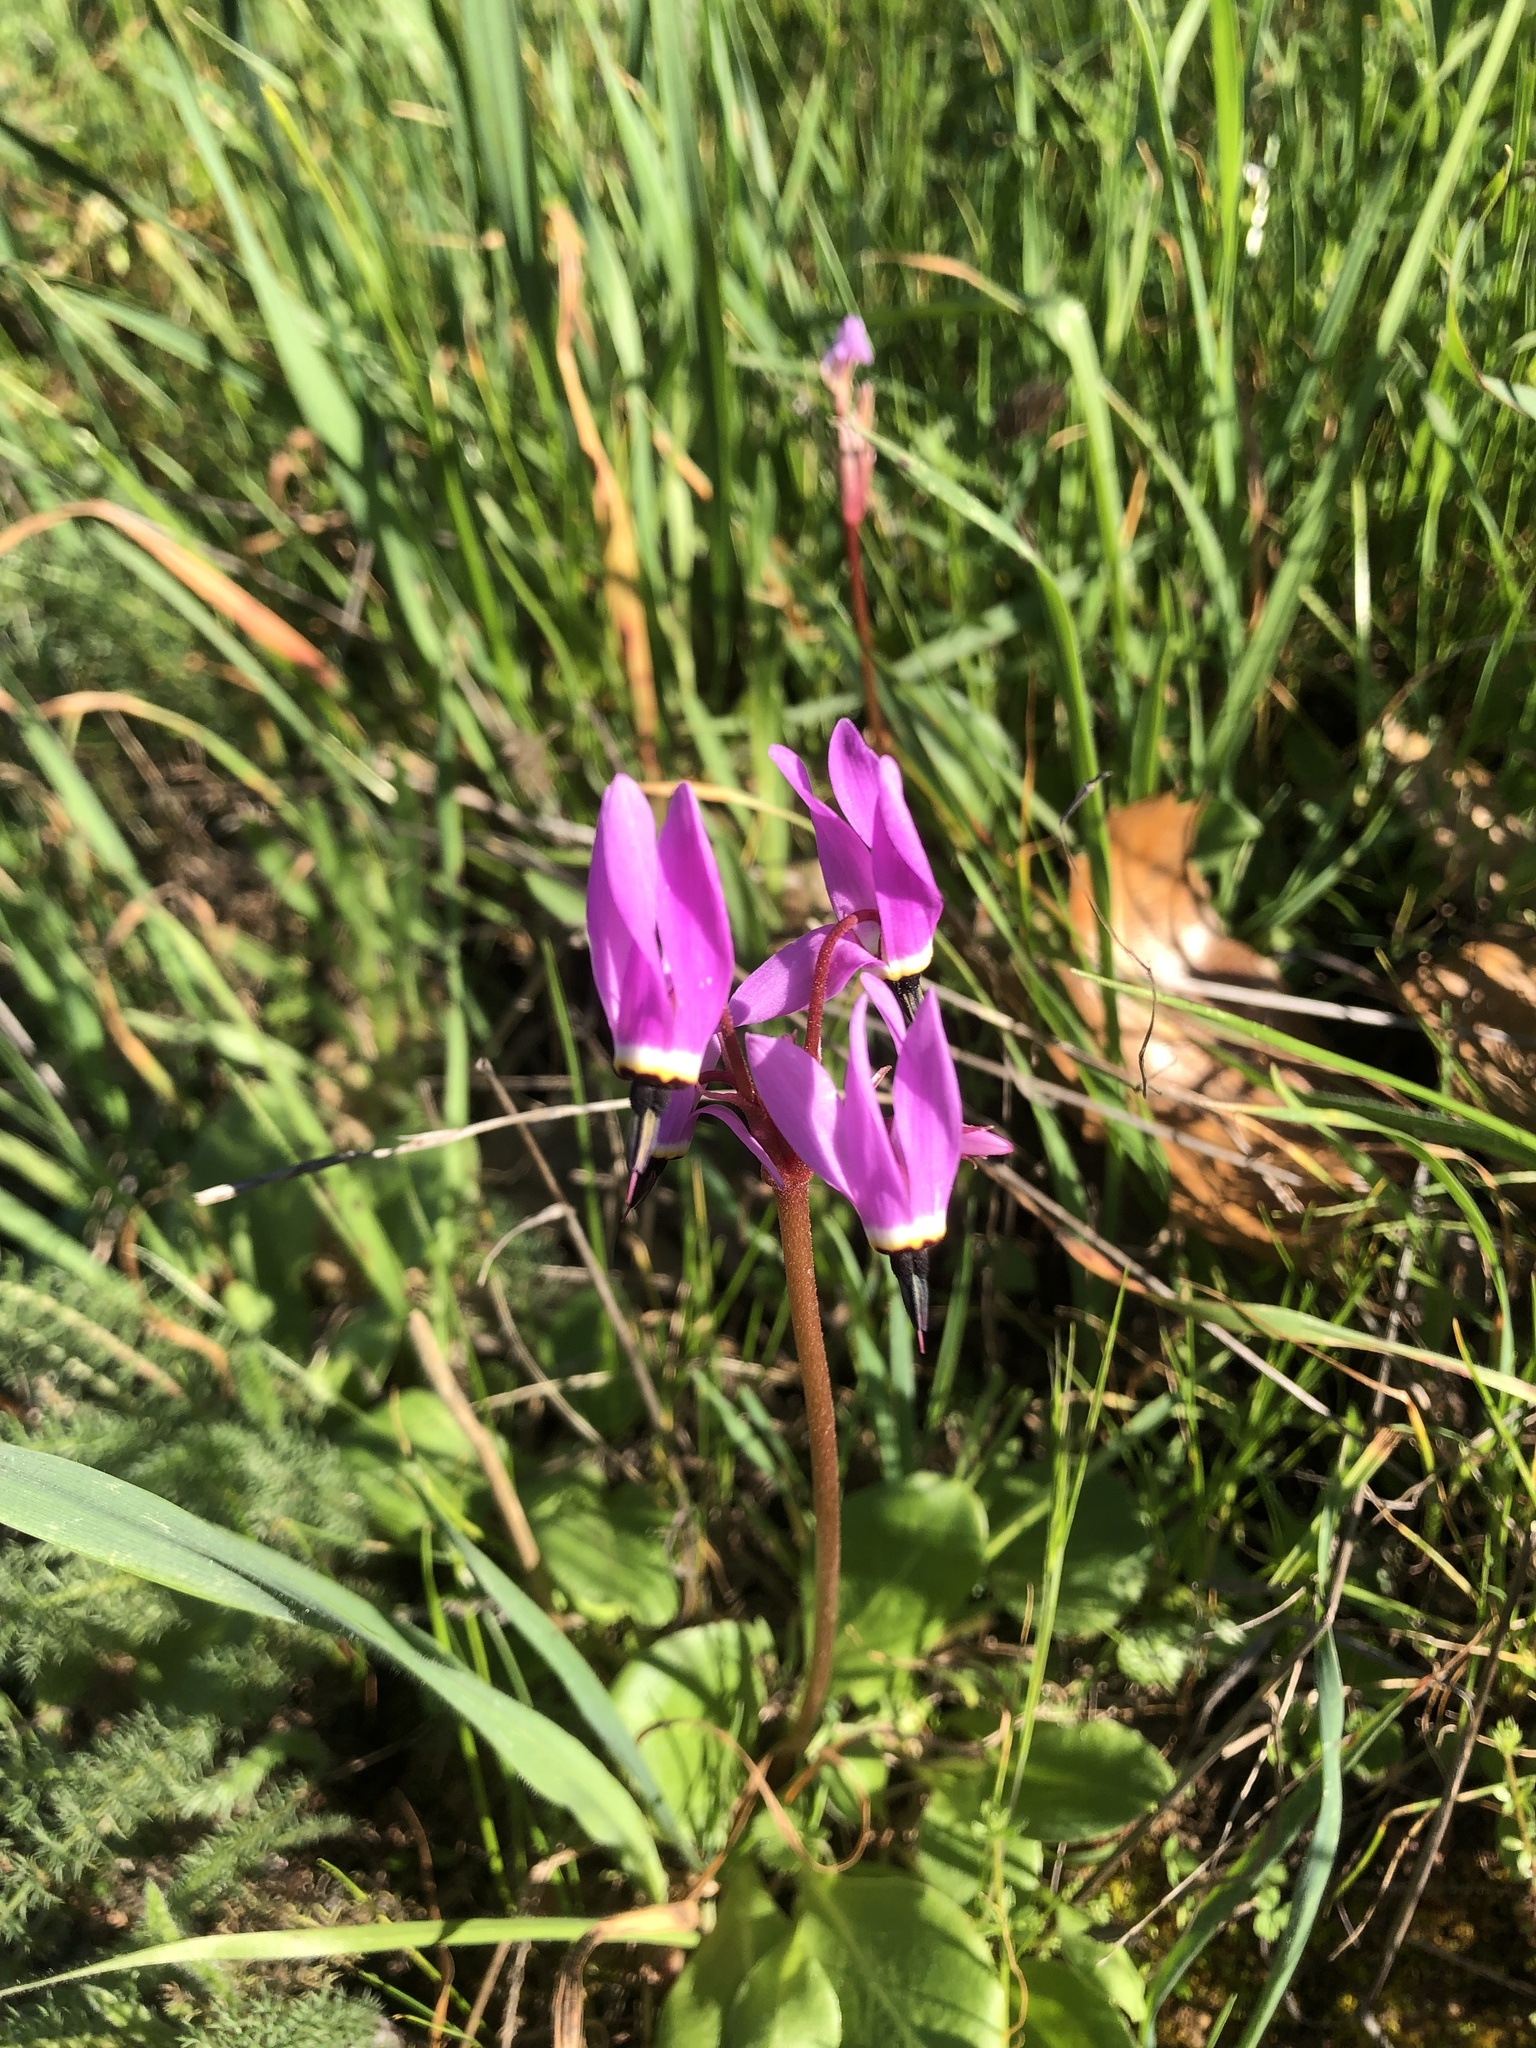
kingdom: Plantae
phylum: Tracheophyta
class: Magnoliopsida
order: Ericales
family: Primulaceae
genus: Dodecatheon
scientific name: Dodecatheon hendersonii
